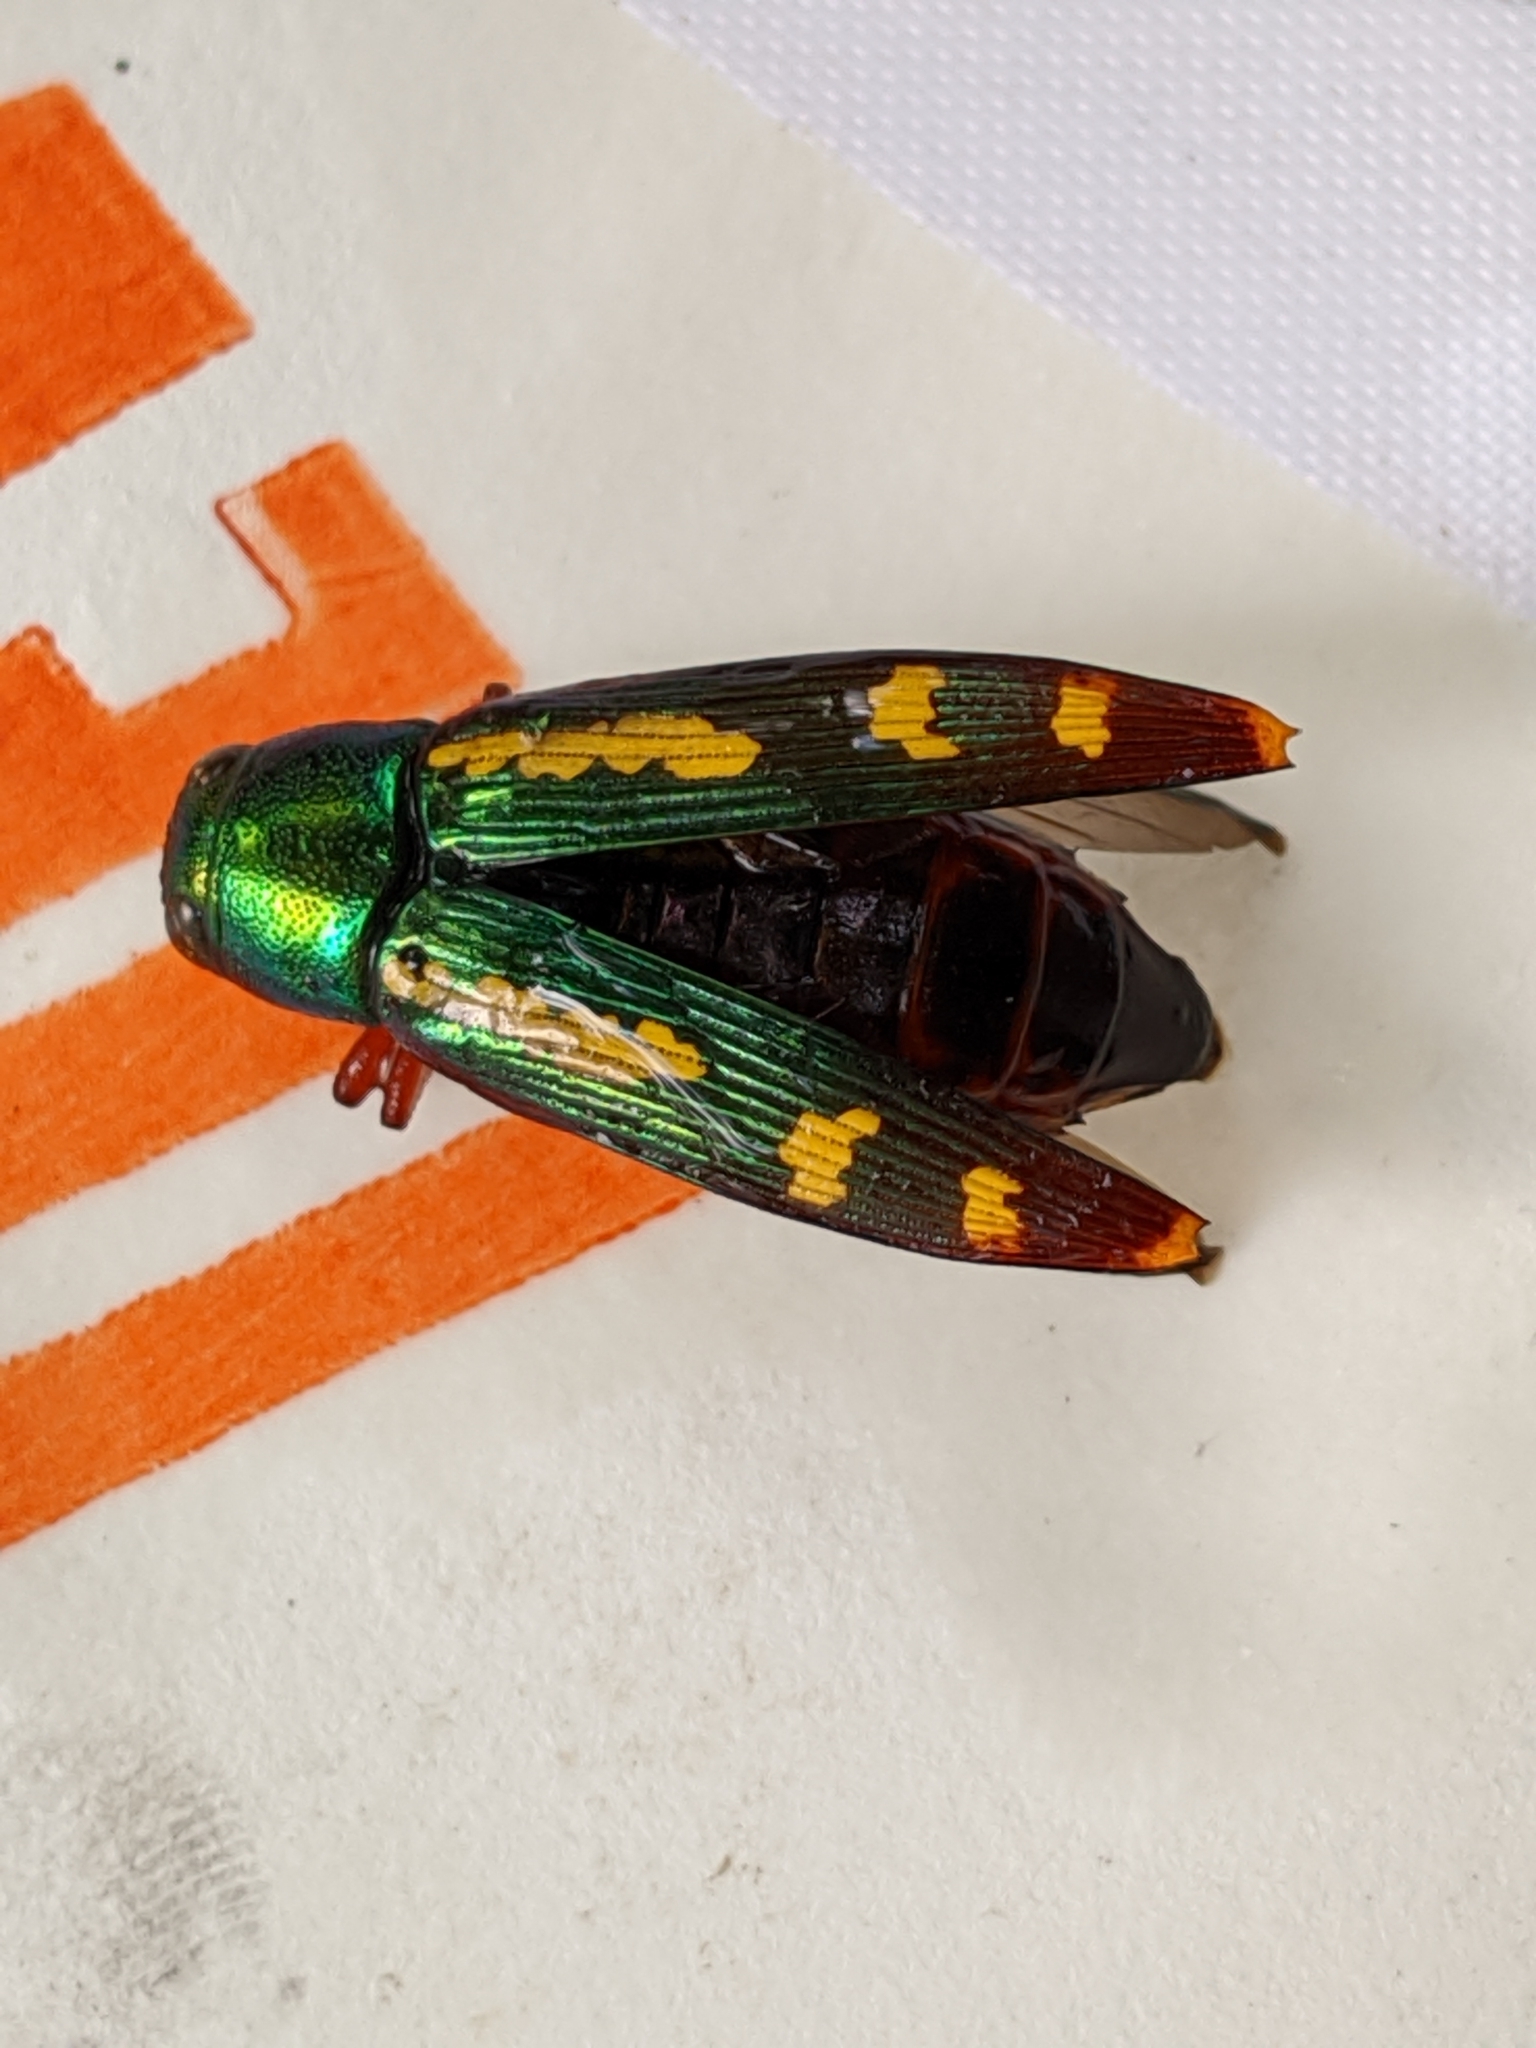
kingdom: Animalia
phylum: Arthropoda
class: Insecta
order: Coleoptera
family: Buprestidae
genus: Buprestis
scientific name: Buprestis rufipes
